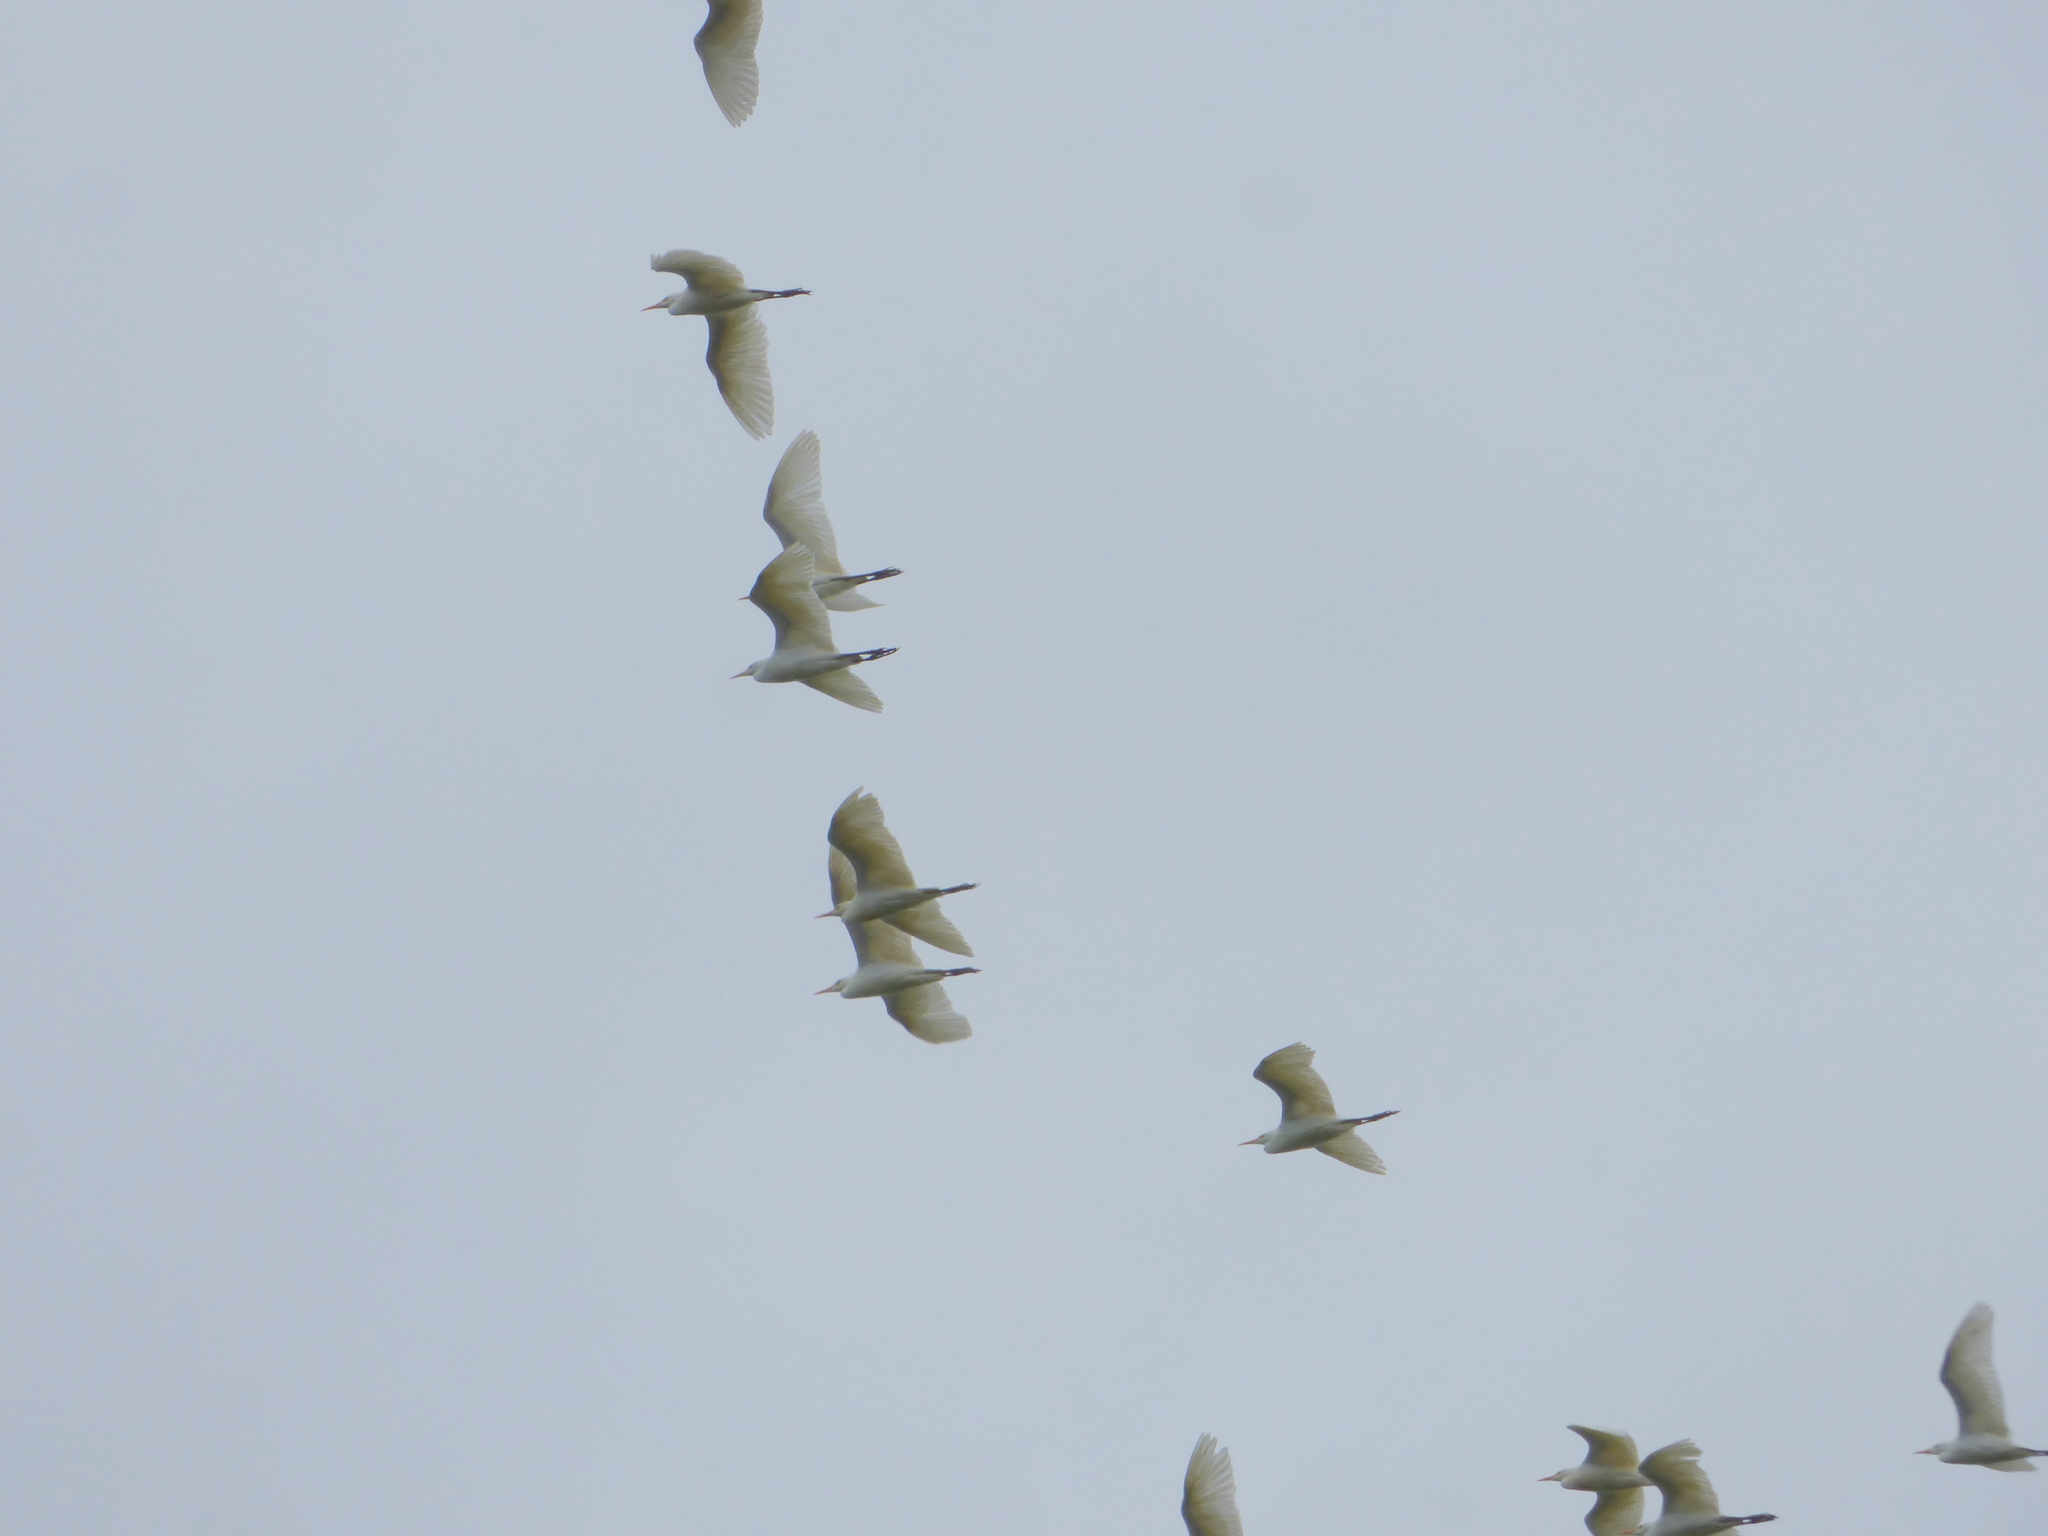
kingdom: Animalia
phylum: Chordata
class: Aves
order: Pelecaniformes
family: Ardeidae
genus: Bubulcus
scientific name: Bubulcus ibis
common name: Cattle egret
